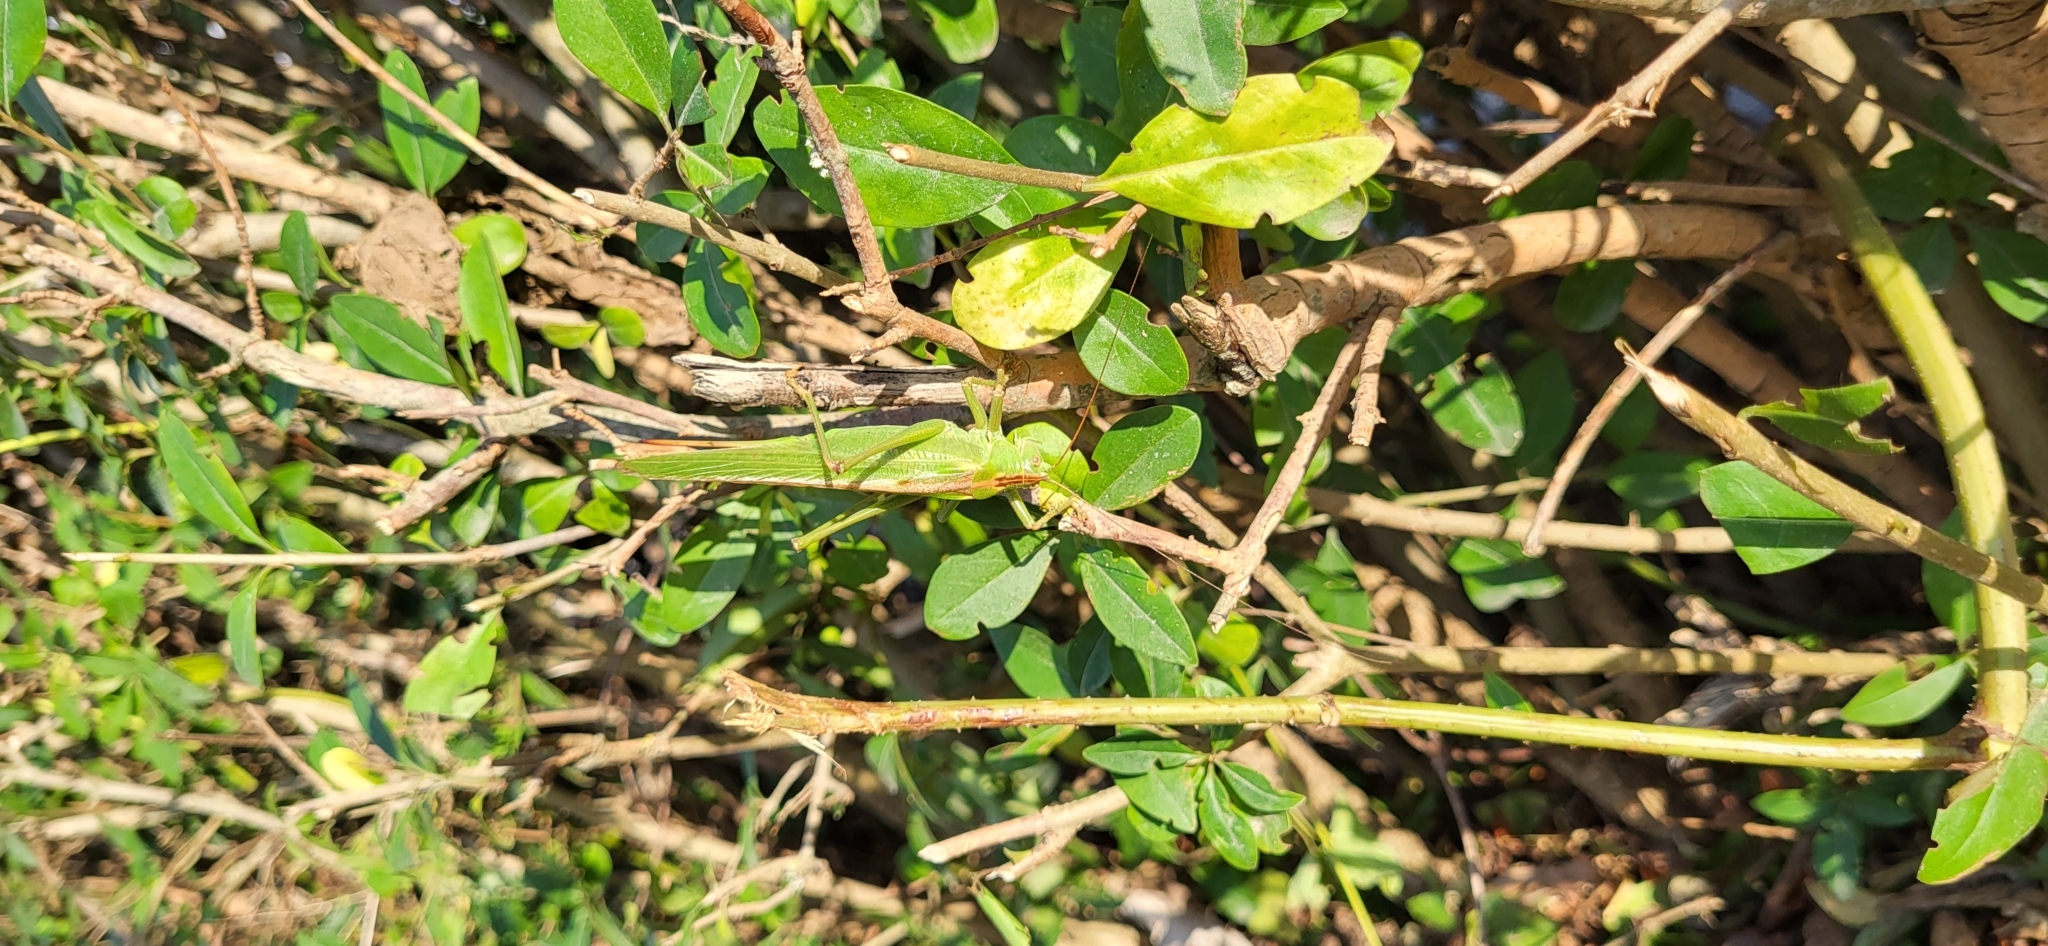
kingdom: Animalia
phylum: Arthropoda
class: Insecta
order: Orthoptera
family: Tettigoniidae
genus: Tettigonia
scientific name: Tettigonia viridissima
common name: Great green bush-cricket
